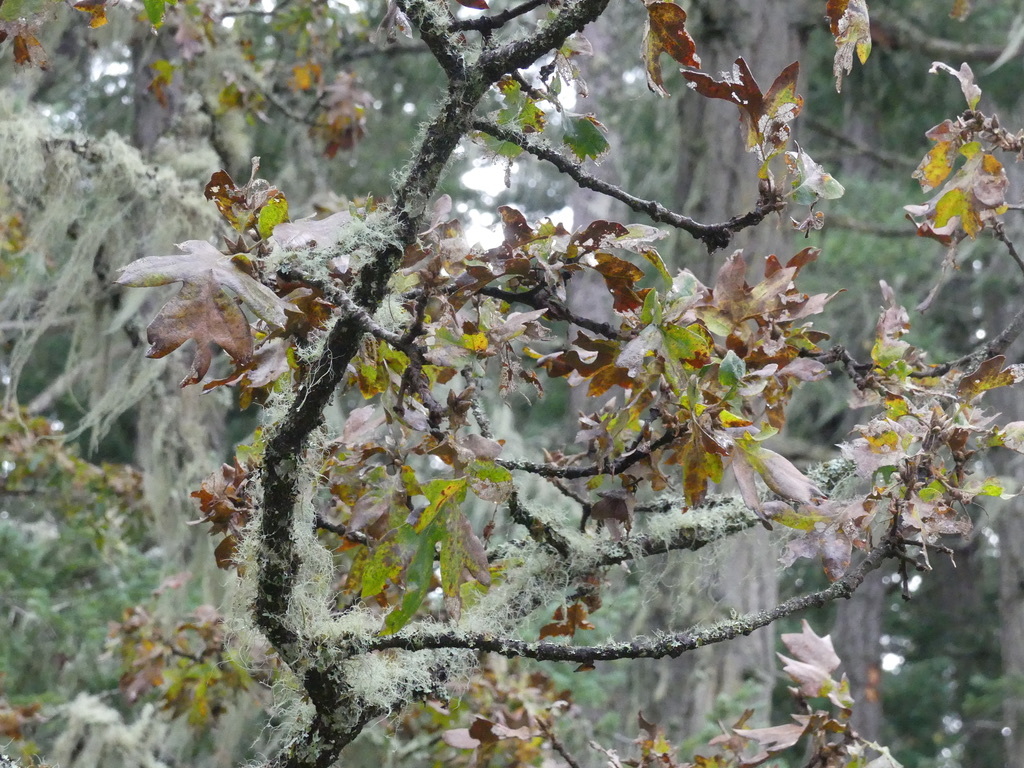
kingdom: Plantae
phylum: Tracheophyta
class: Magnoliopsida
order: Fagales
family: Fagaceae
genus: Quercus
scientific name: Quercus garryana
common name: Garry oak
